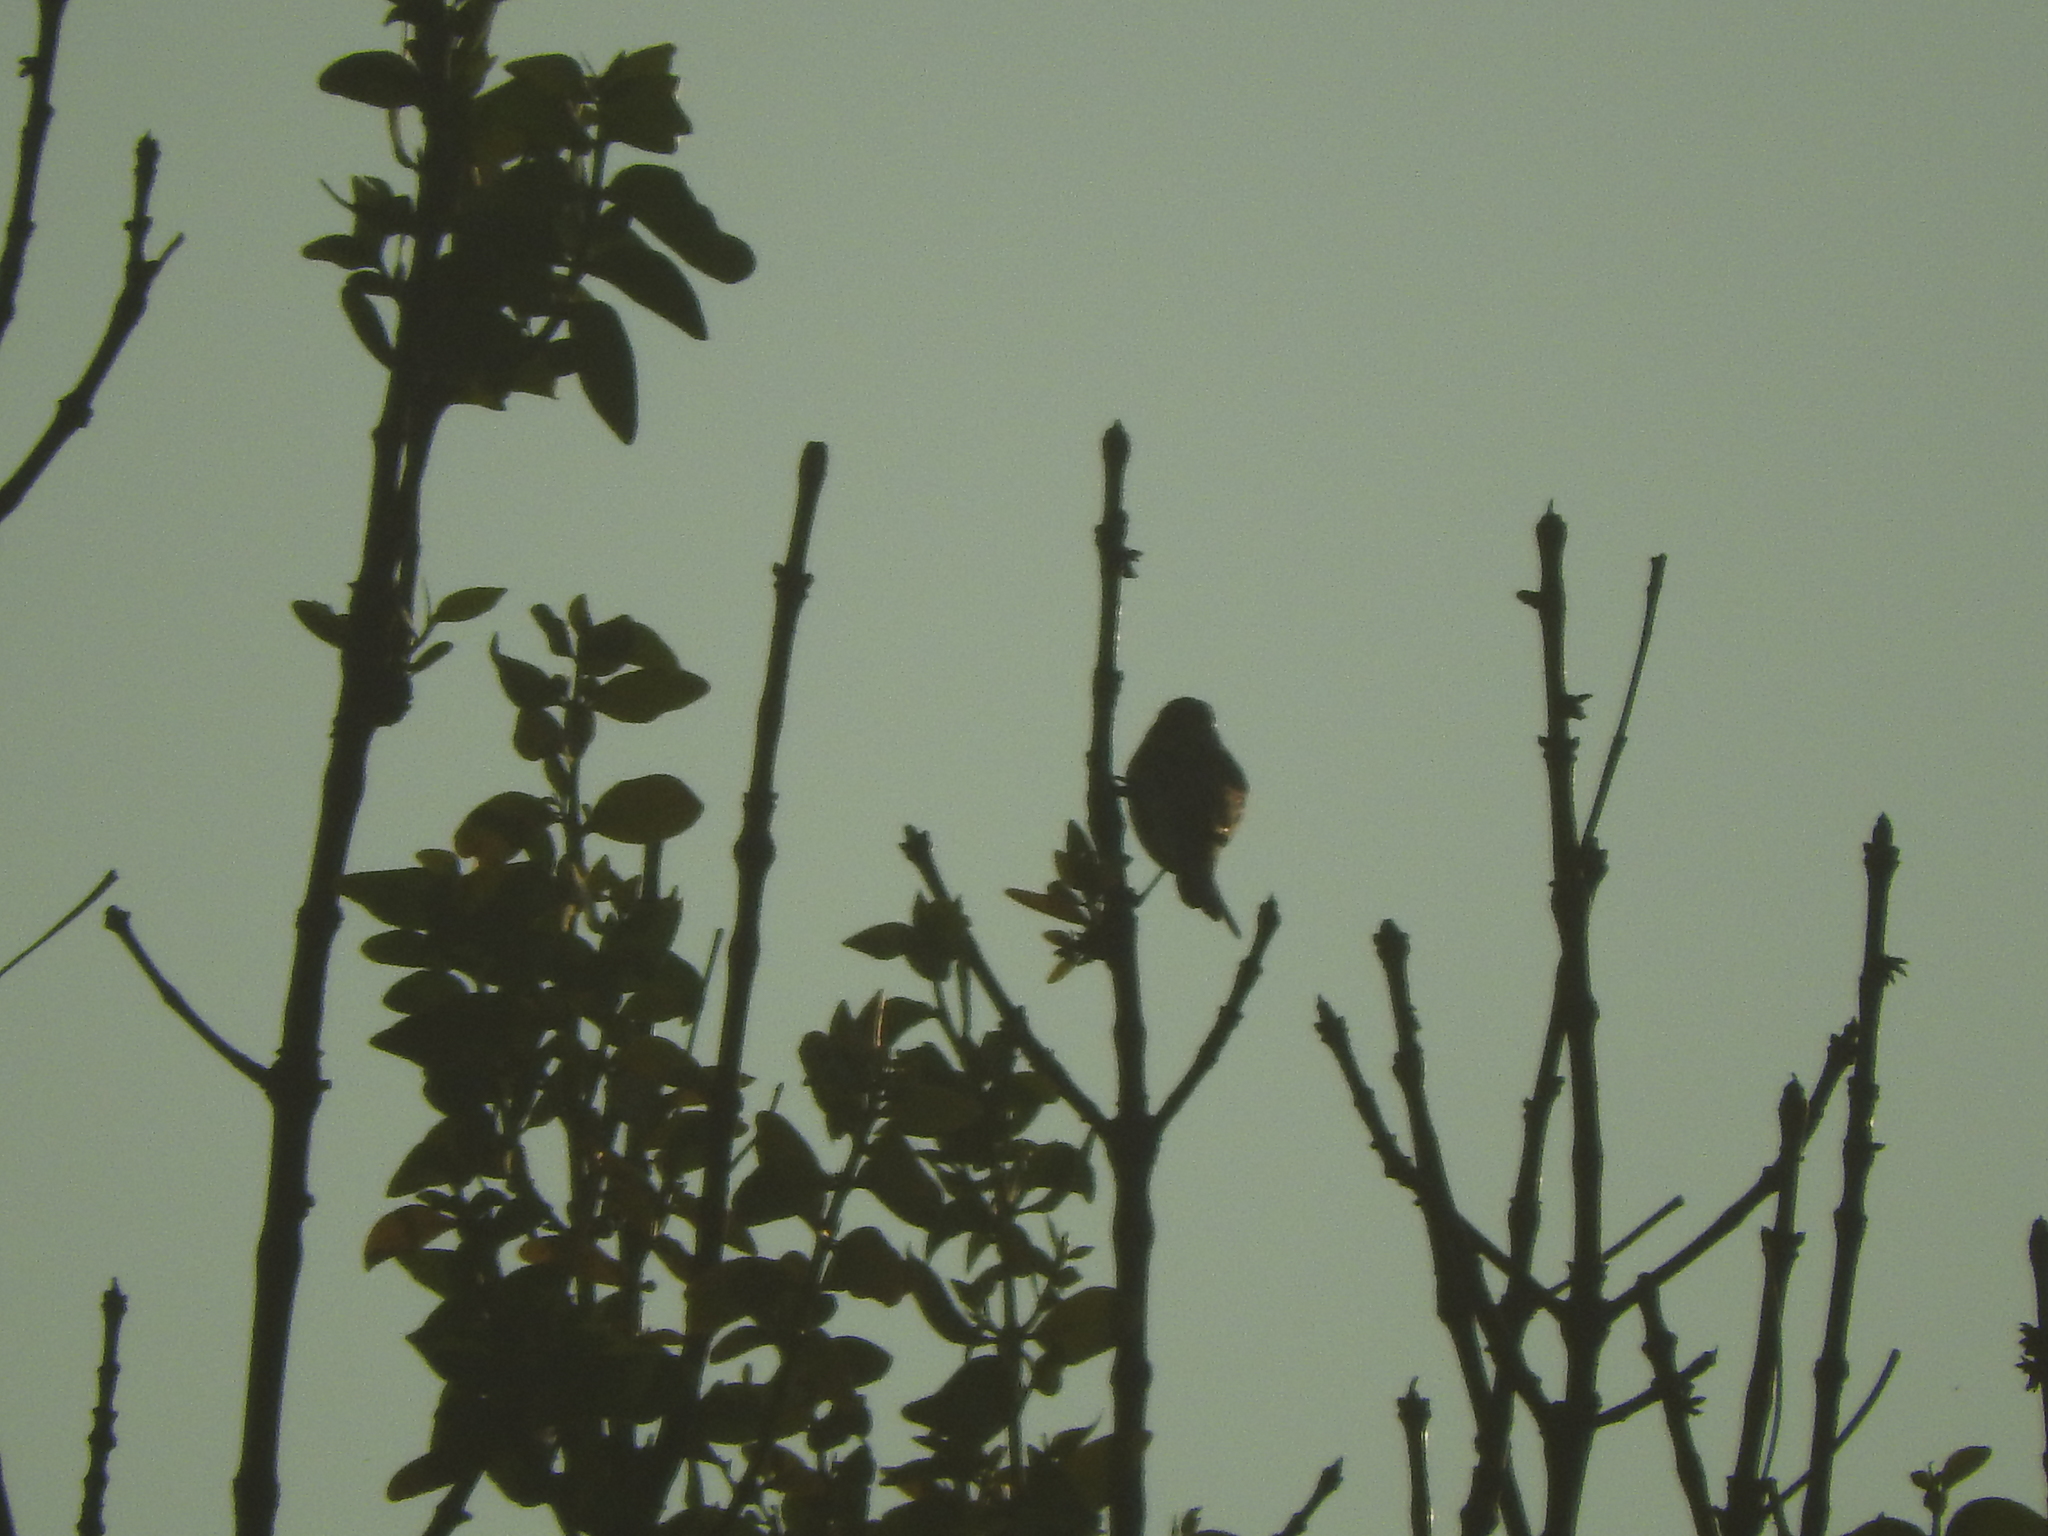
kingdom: Animalia
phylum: Chordata
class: Aves
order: Passeriformes
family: Fringillidae
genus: Haemorhous
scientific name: Haemorhous mexicanus
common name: House finch
